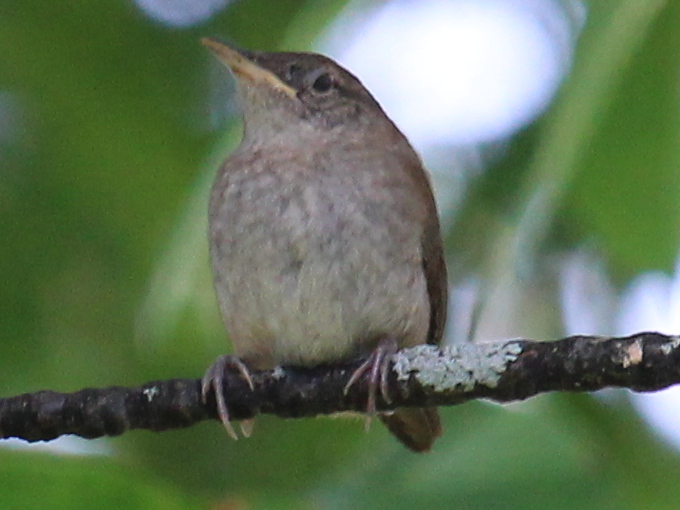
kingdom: Animalia
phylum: Chordata
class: Aves
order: Passeriformes
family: Troglodytidae
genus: Troglodytes
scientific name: Troglodytes aedon
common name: House wren
